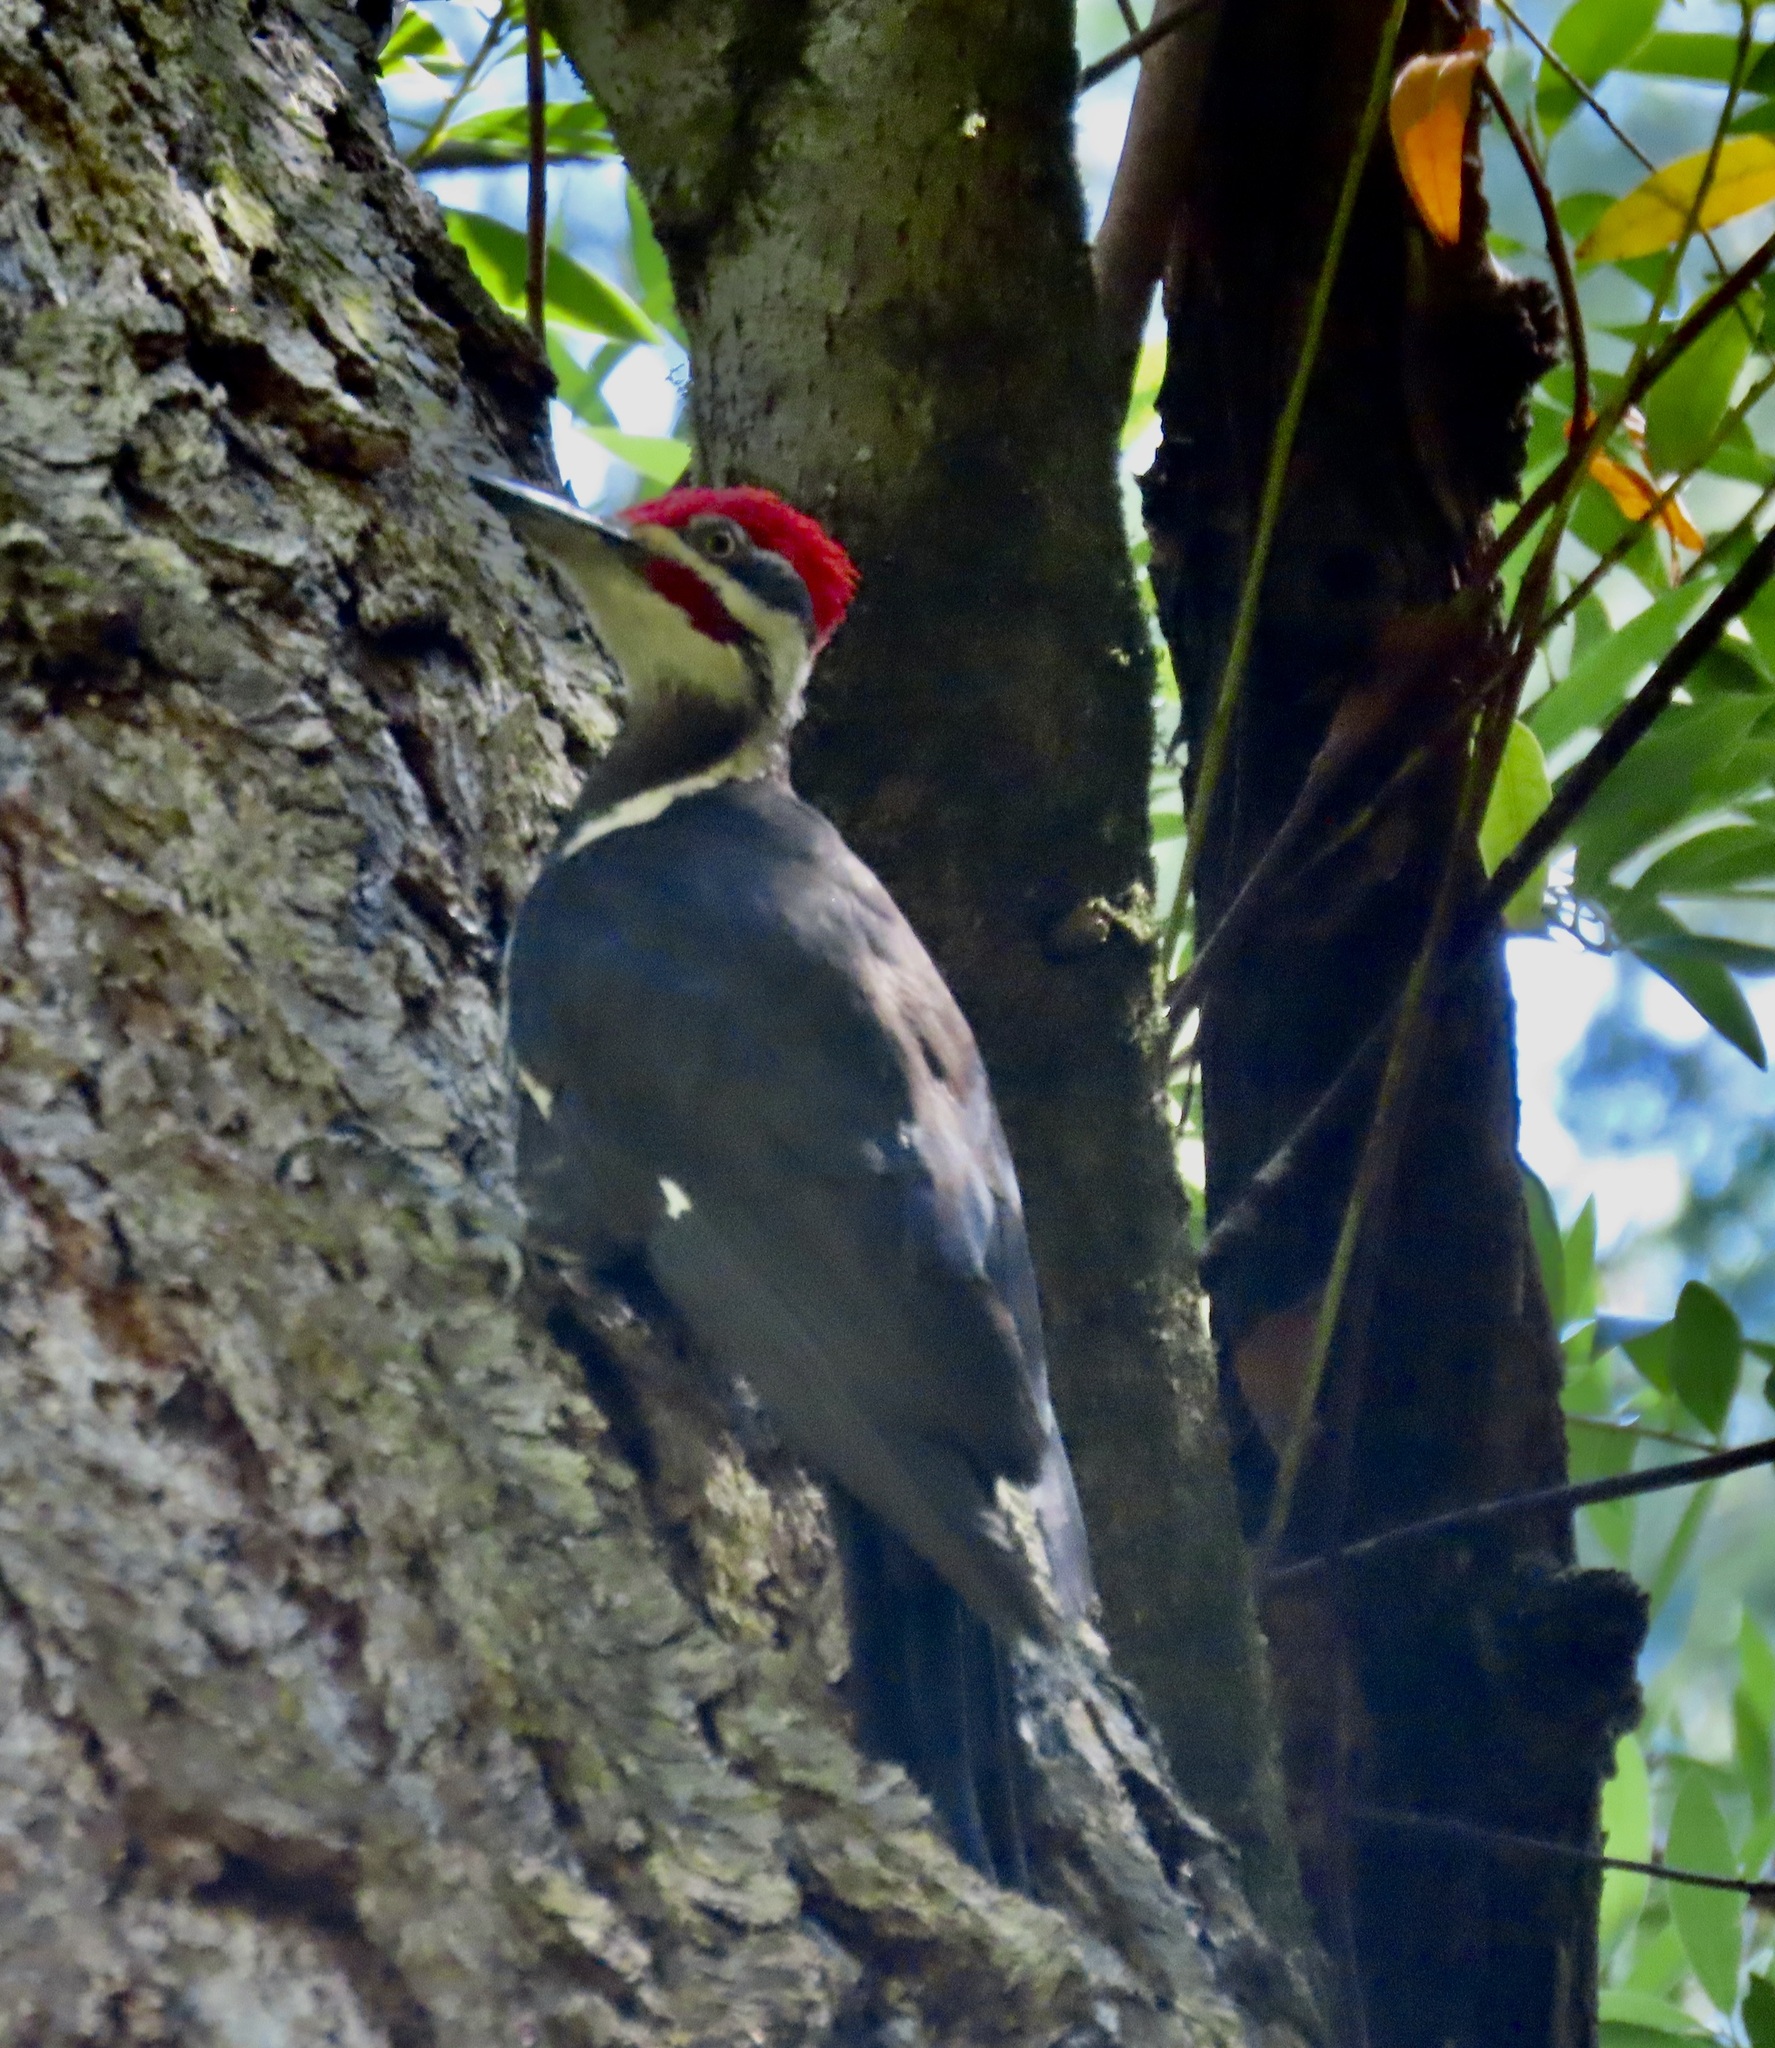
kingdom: Animalia
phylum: Chordata
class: Aves
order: Piciformes
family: Picidae
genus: Dryocopus
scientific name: Dryocopus pileatus
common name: Pileated woodpecker
